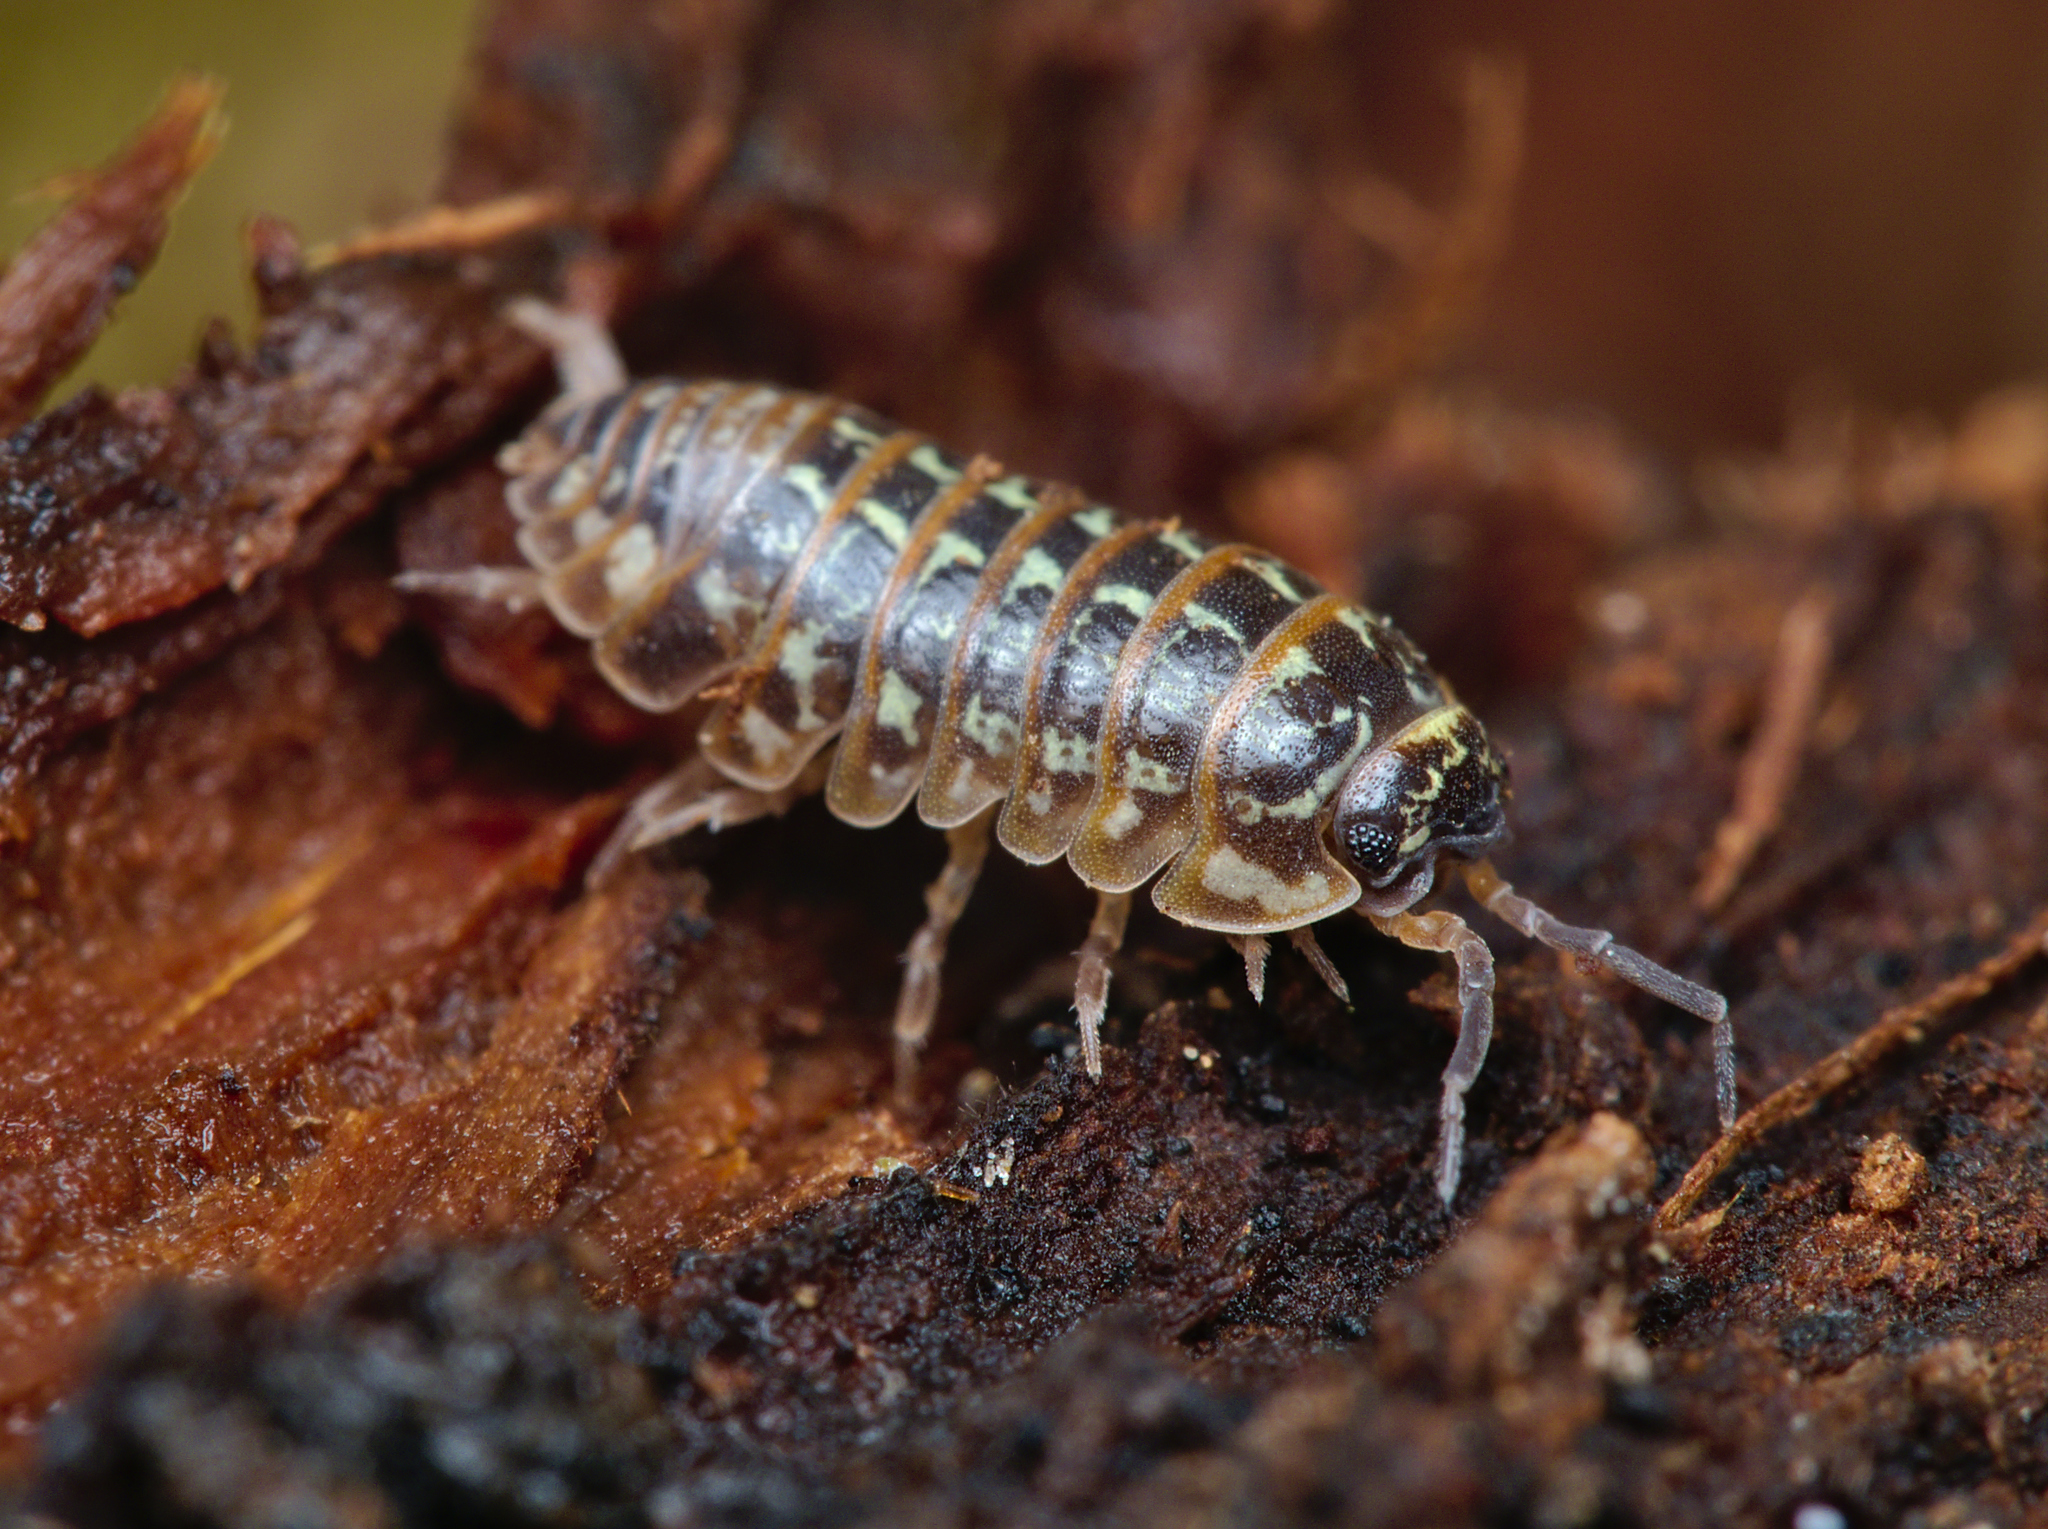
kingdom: Animalia
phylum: Arthropoda
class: Malacostraca
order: Isopoda
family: Armadillidiidae
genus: Armadillidium
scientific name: Armadillidium pictum
